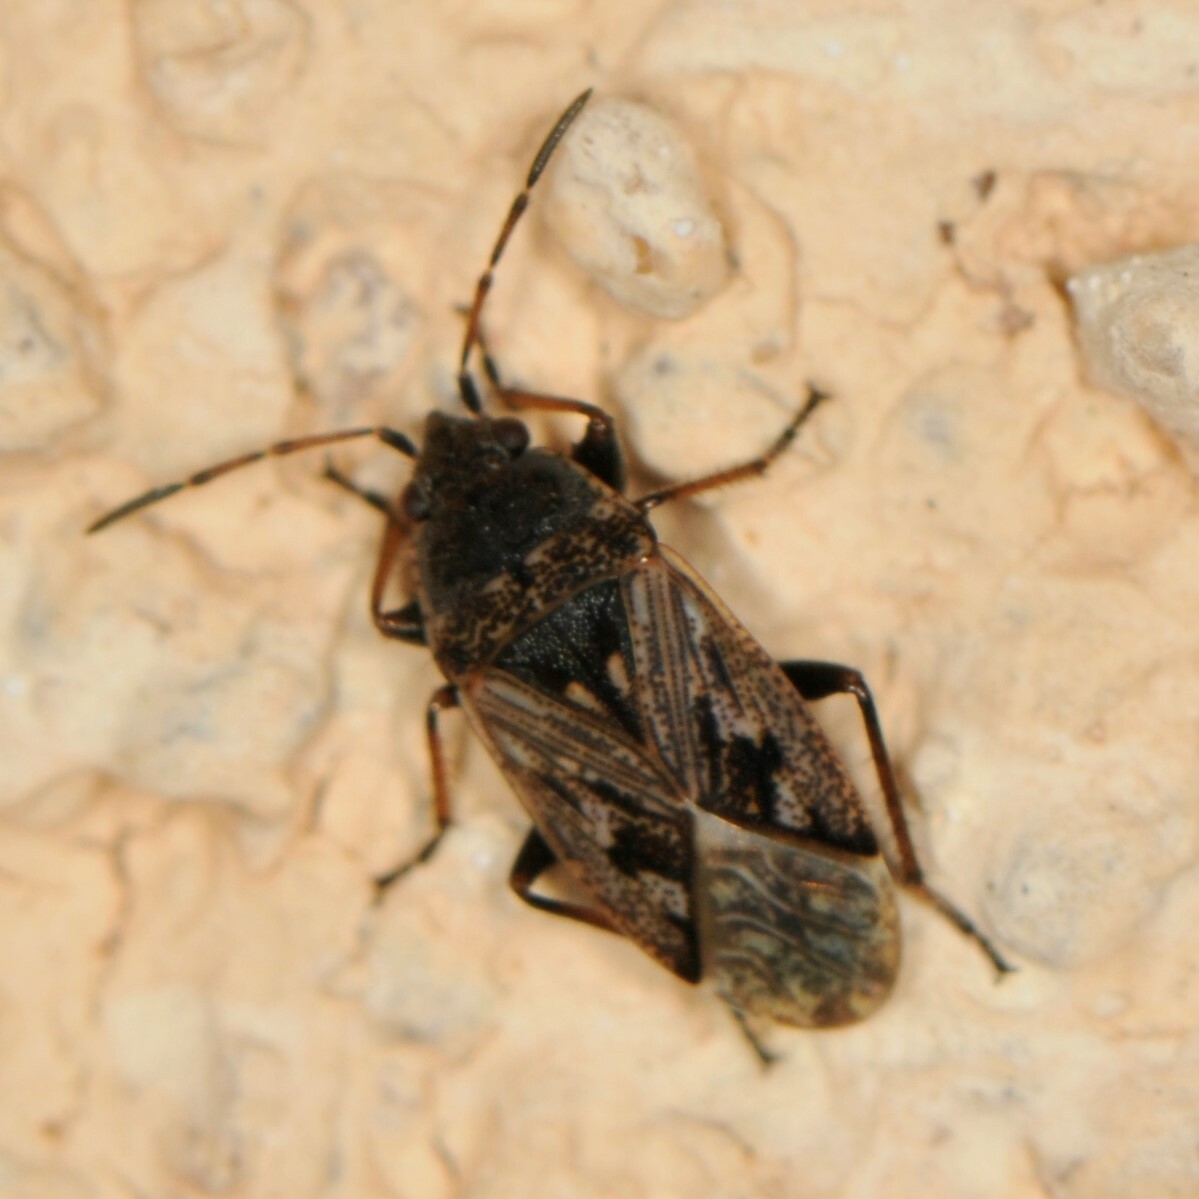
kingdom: Animalia
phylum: Arthropoda
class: Insecta
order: Hemiptera
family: Rhyparochromidae
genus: Sphragisticus
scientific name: Sphragisticus nebulosus
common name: Dirt-colored seed bug
